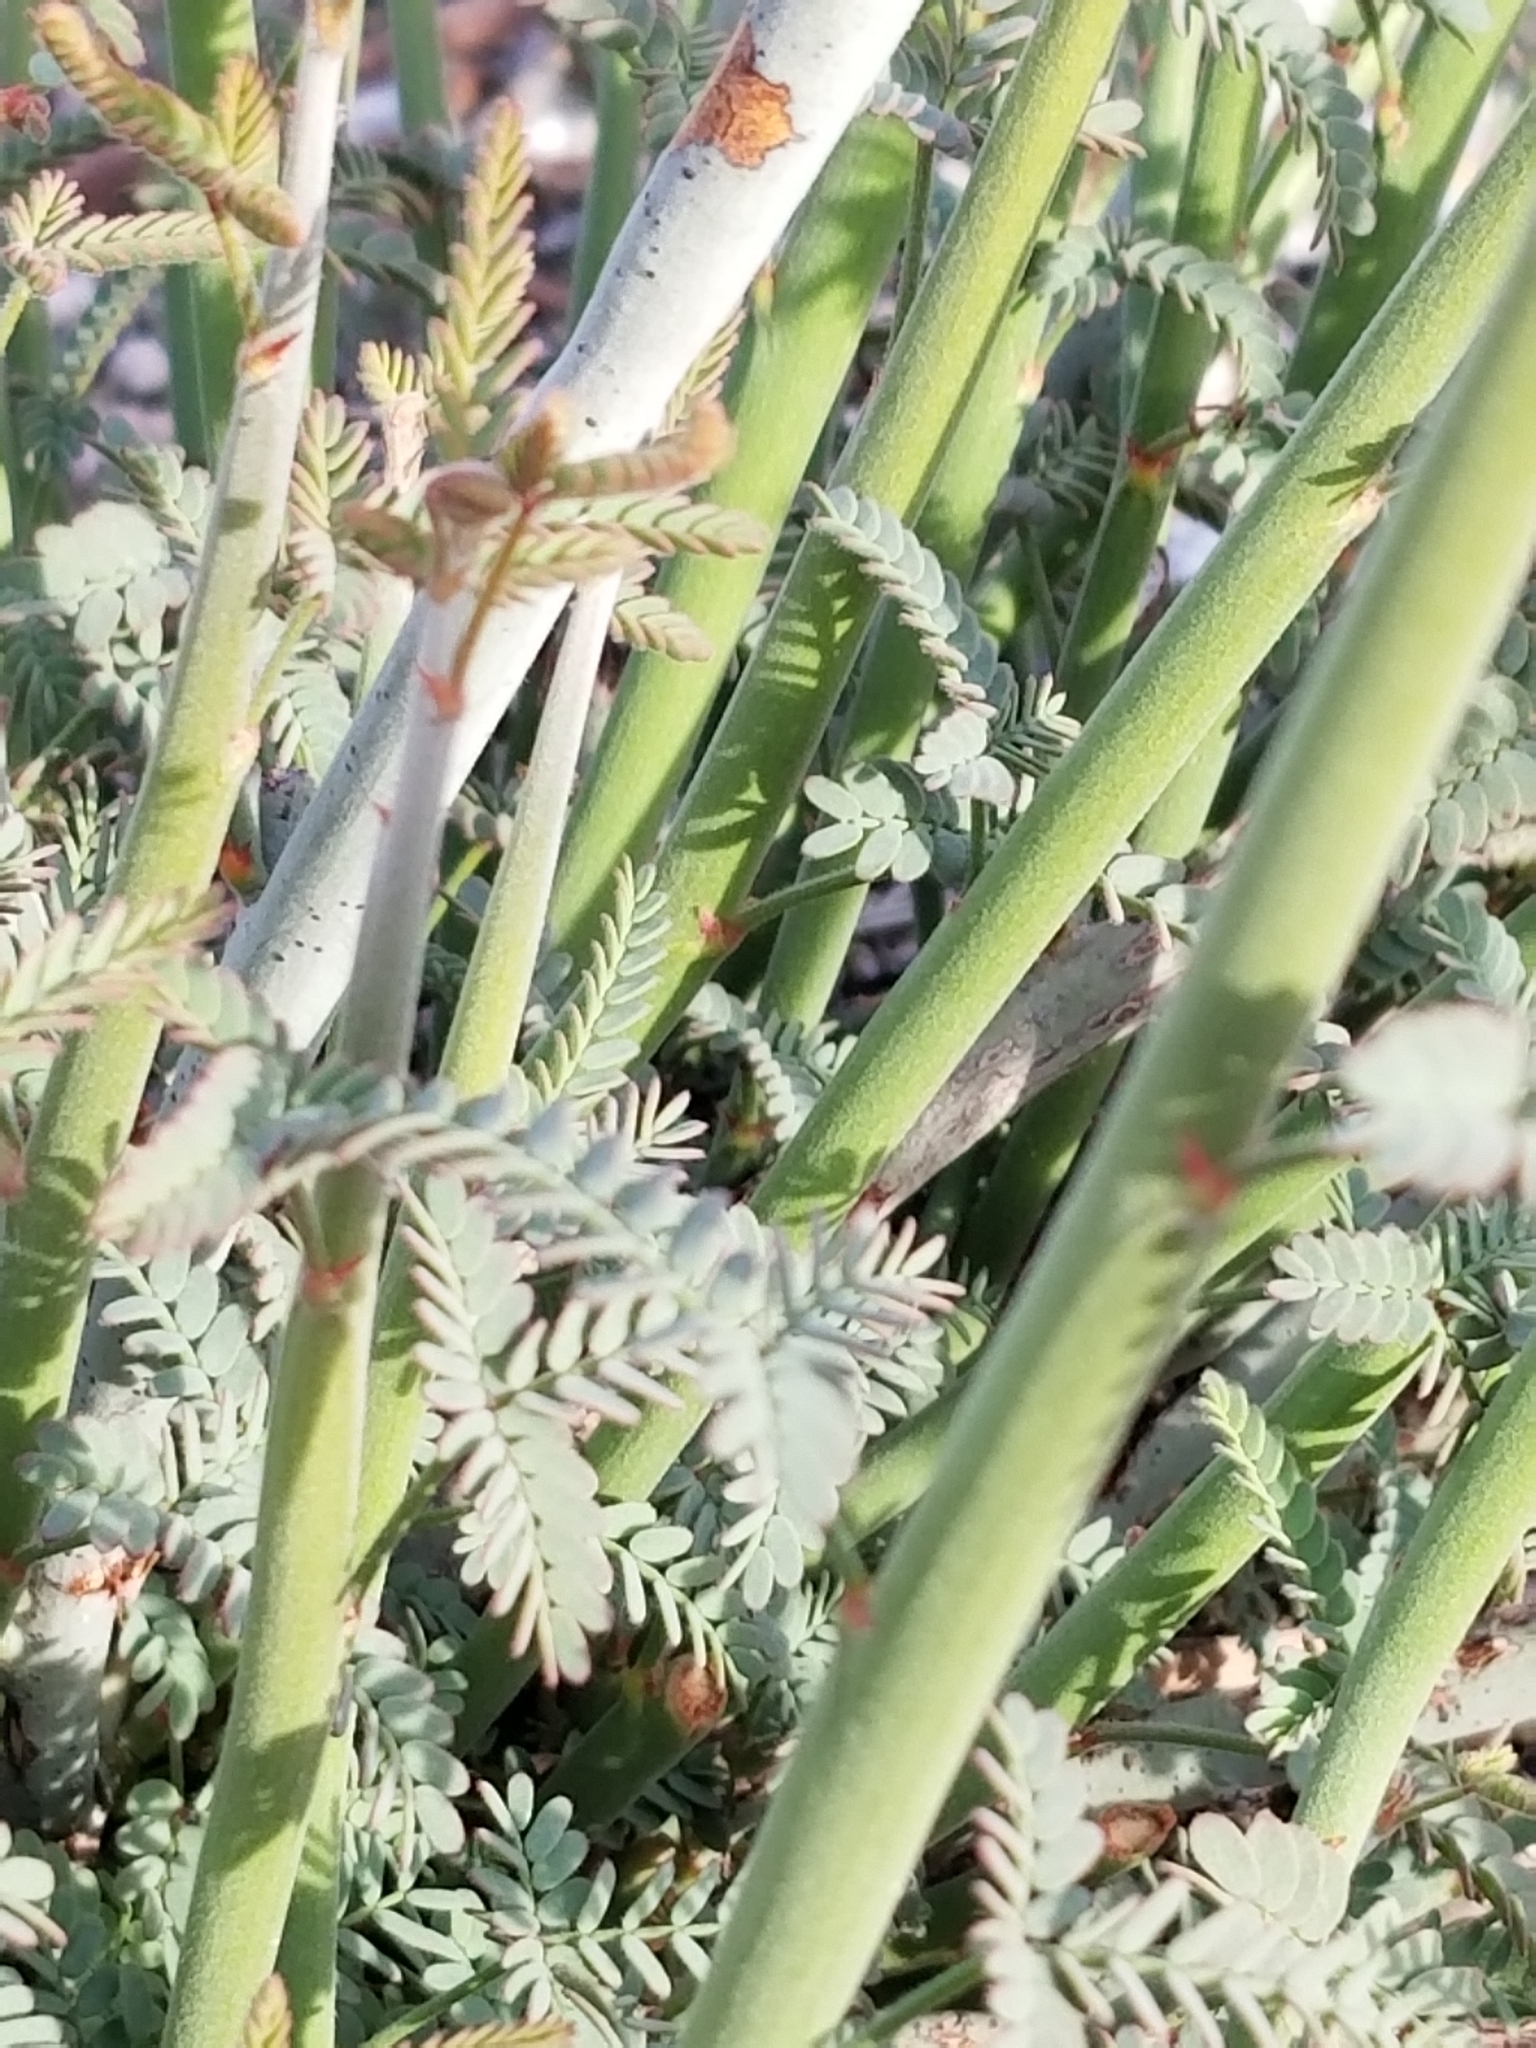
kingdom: Plantae
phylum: Tracheophyta
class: Magnoliopsida
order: Fabales
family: Fabaceae
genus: Hoffmannseggia
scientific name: Hoffmannseggia microphylla
